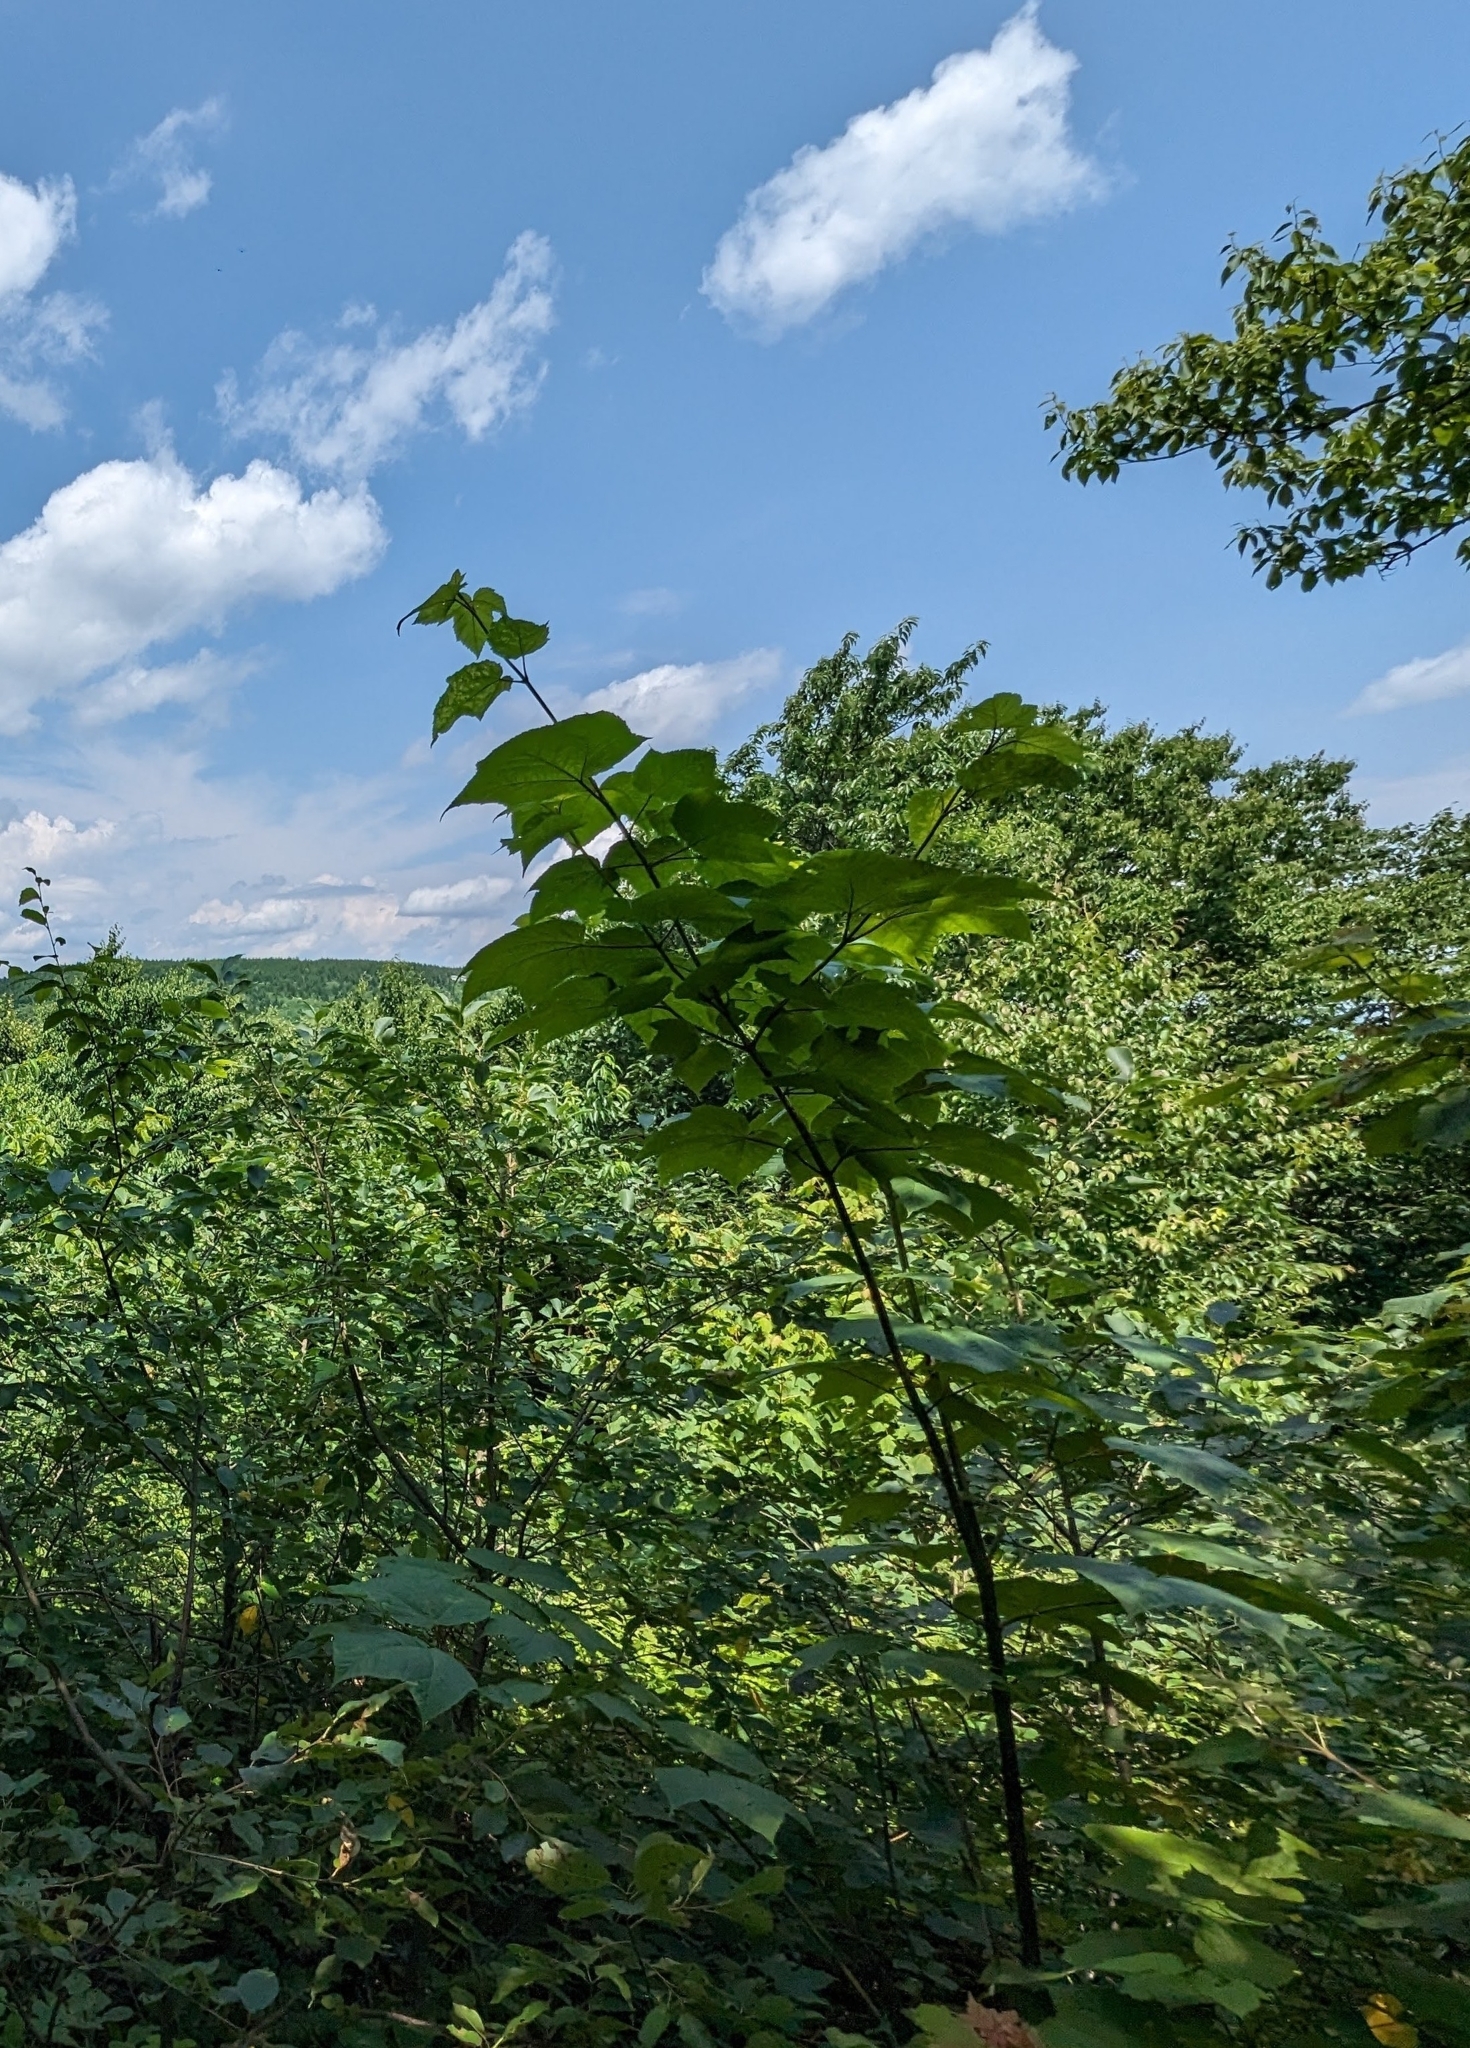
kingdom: Plantae
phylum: Tracheophyta
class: Magnoliopsida
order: Sapindales
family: Sapindaceae
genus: Acer
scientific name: Acer pensylvanicum
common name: Moosewood
